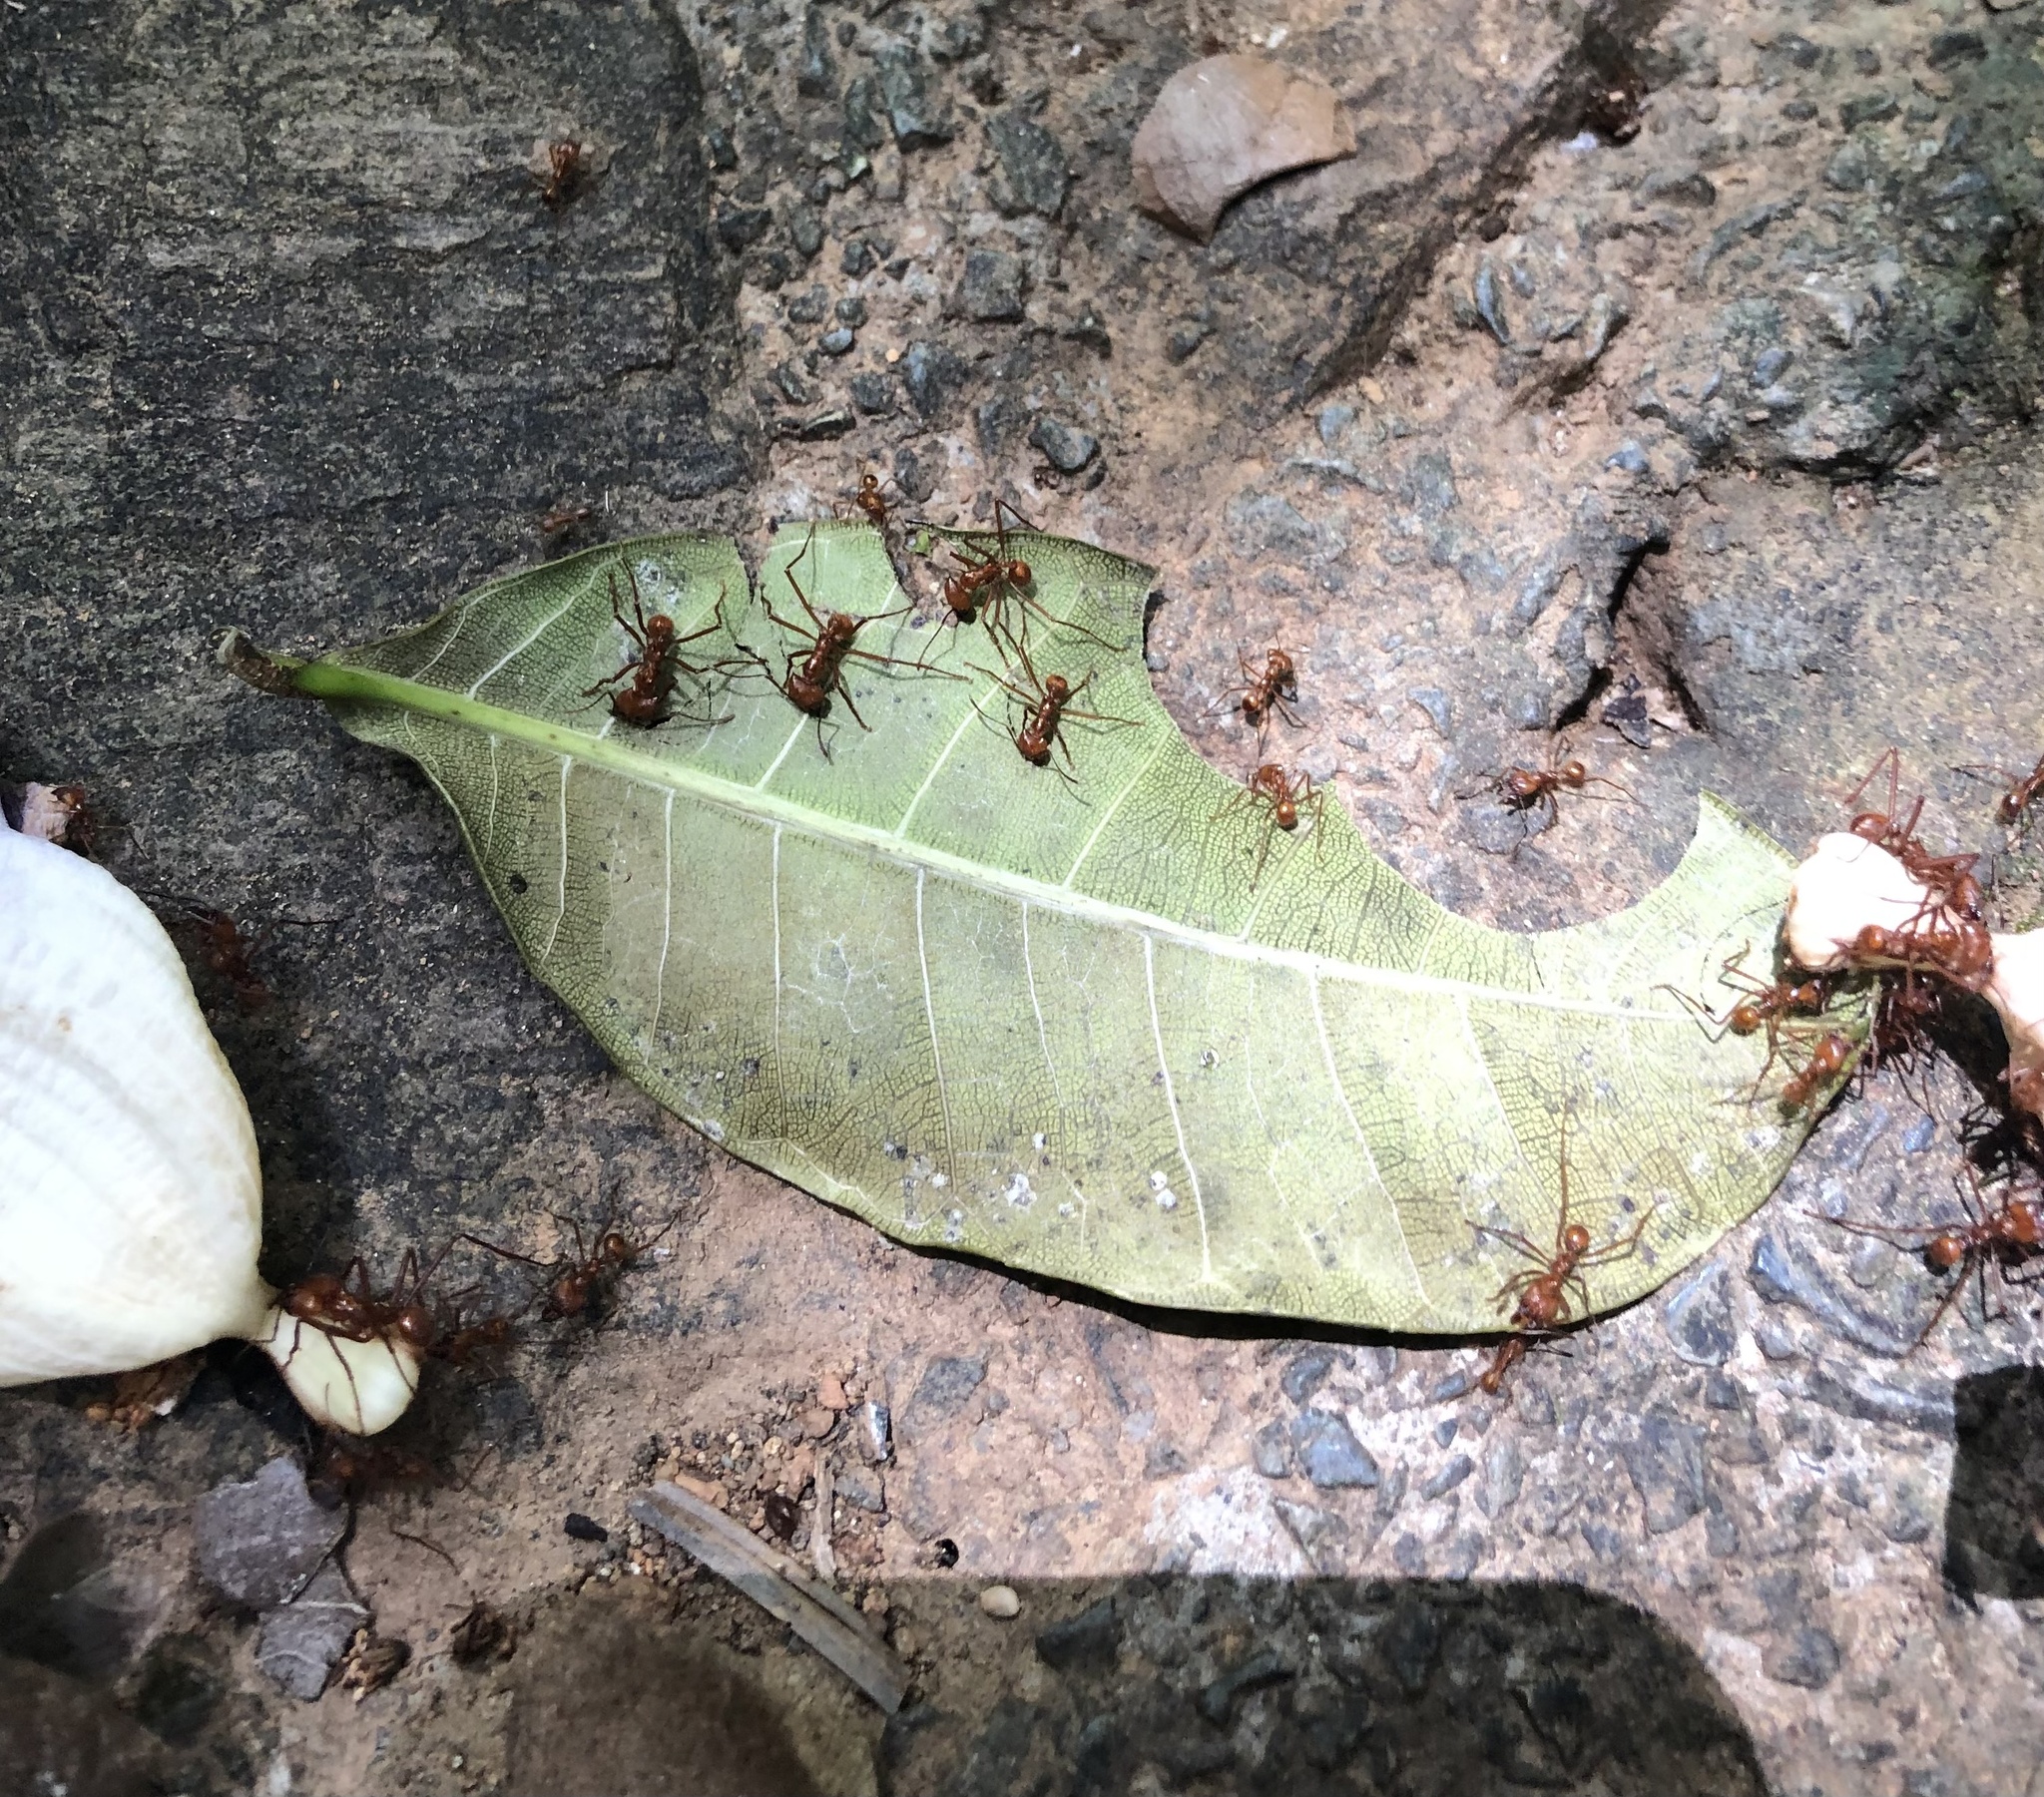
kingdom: Animalia
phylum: Arthropoda
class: Insecta
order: Hymenoptera
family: Formicidae
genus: Atta
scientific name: Atta cephalotes
